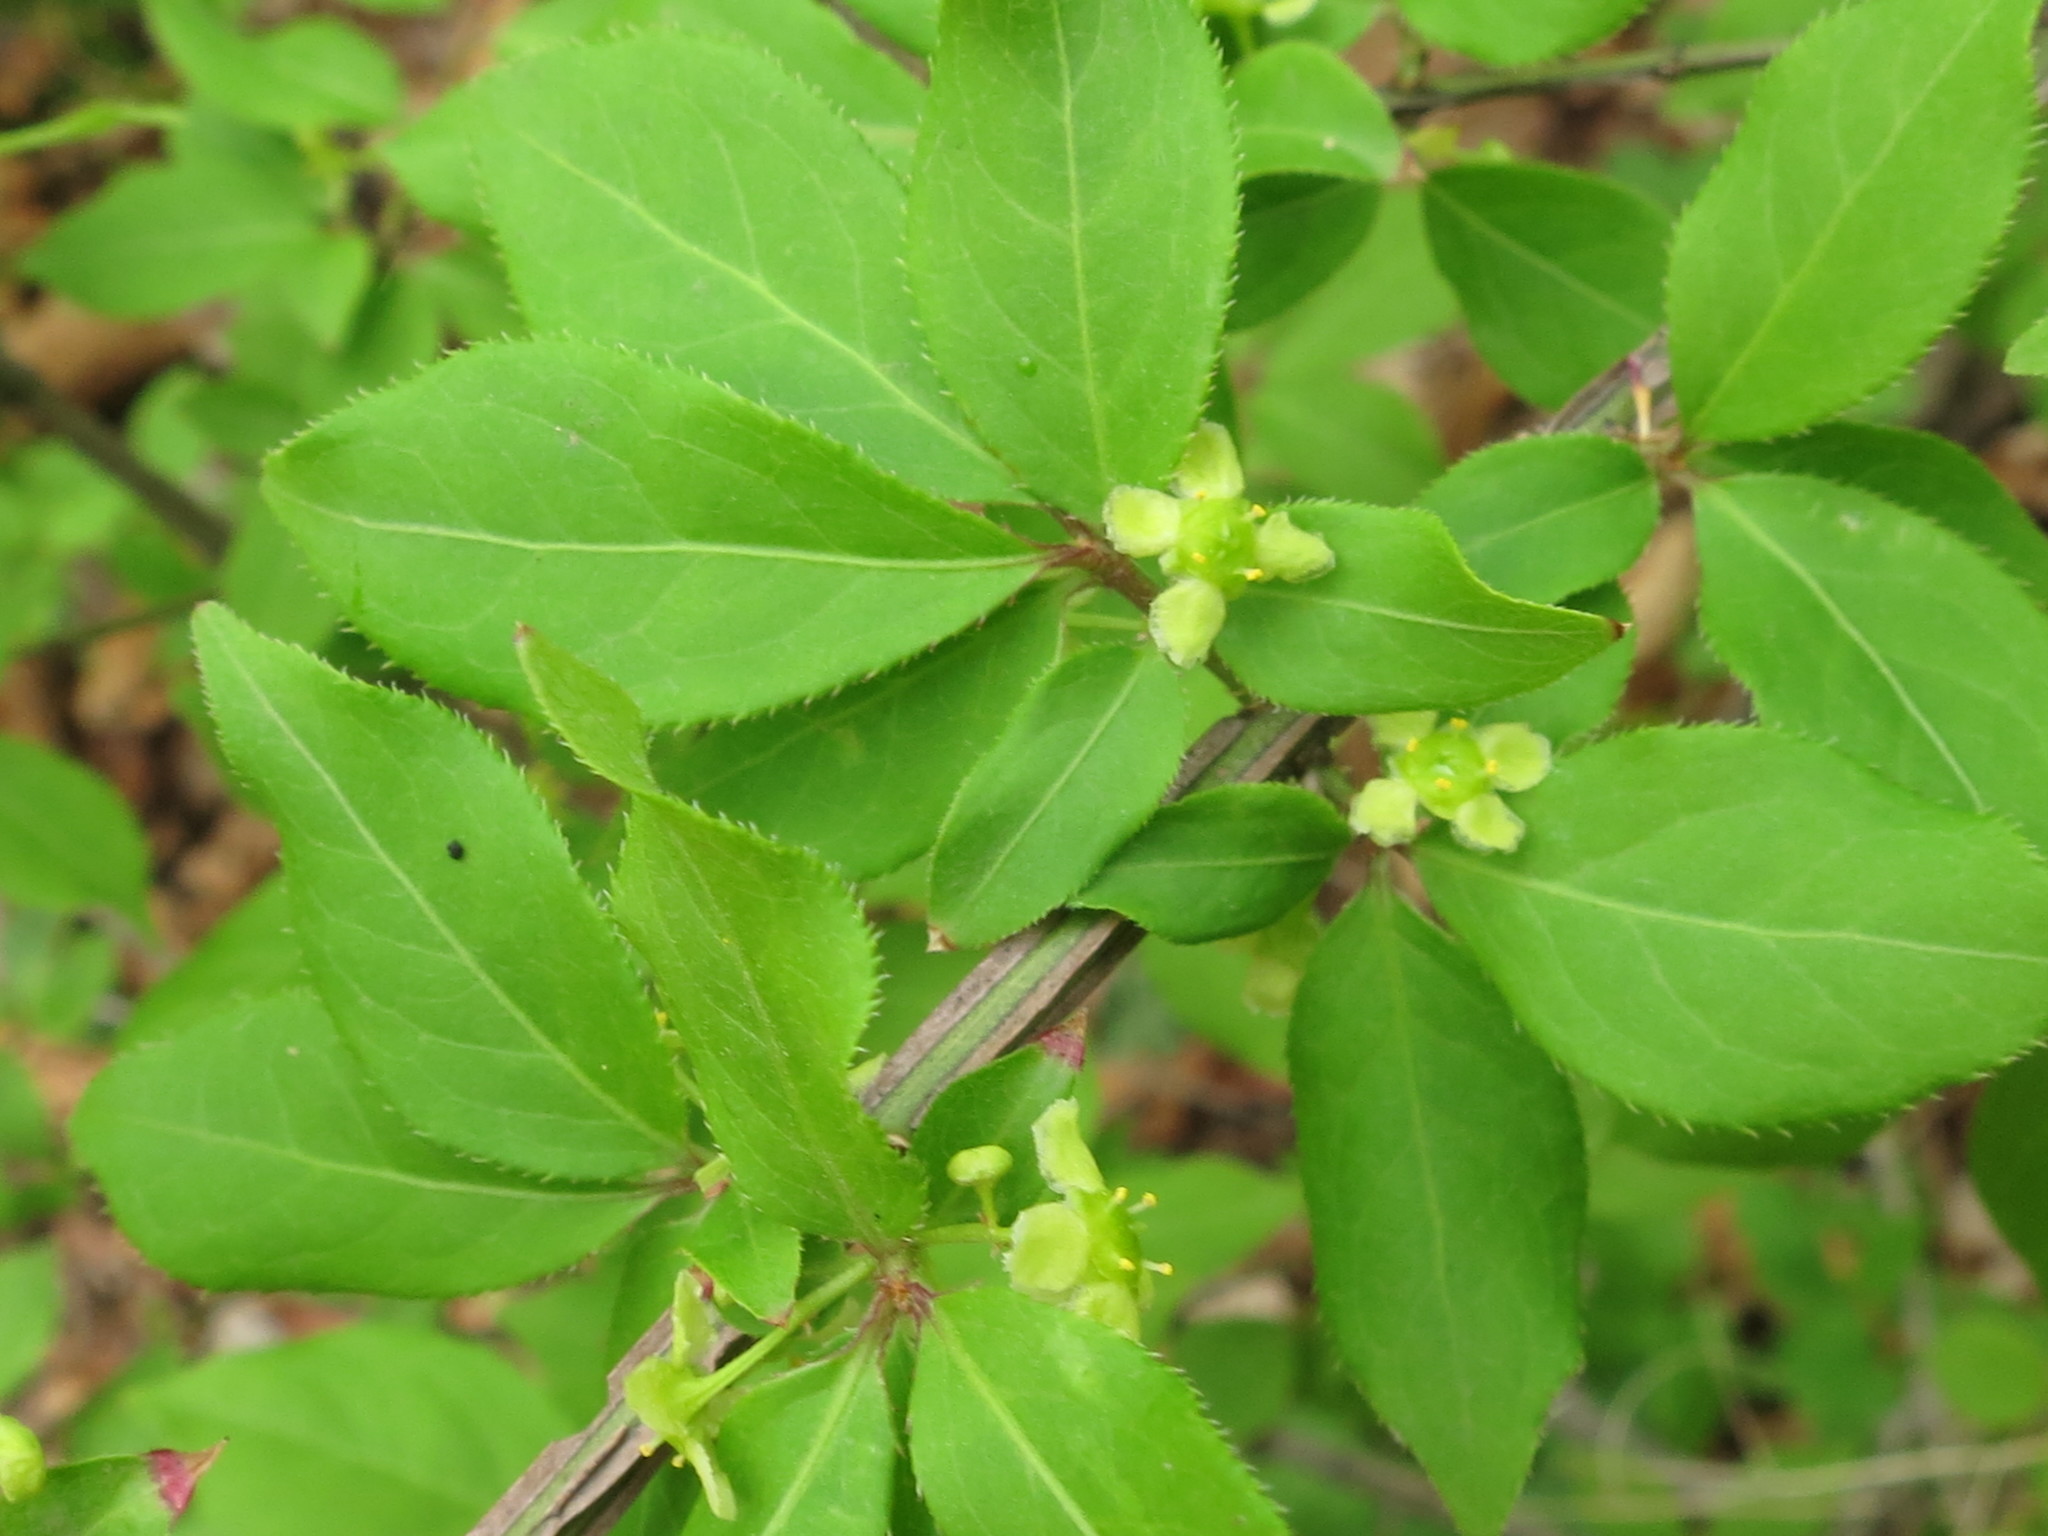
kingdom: Plantae
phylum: Tracheophyta
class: Magnoliopsida
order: Celastrales
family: Celastraceae
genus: Euonymus
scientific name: Euonymus alatus
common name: Winged euonymus
